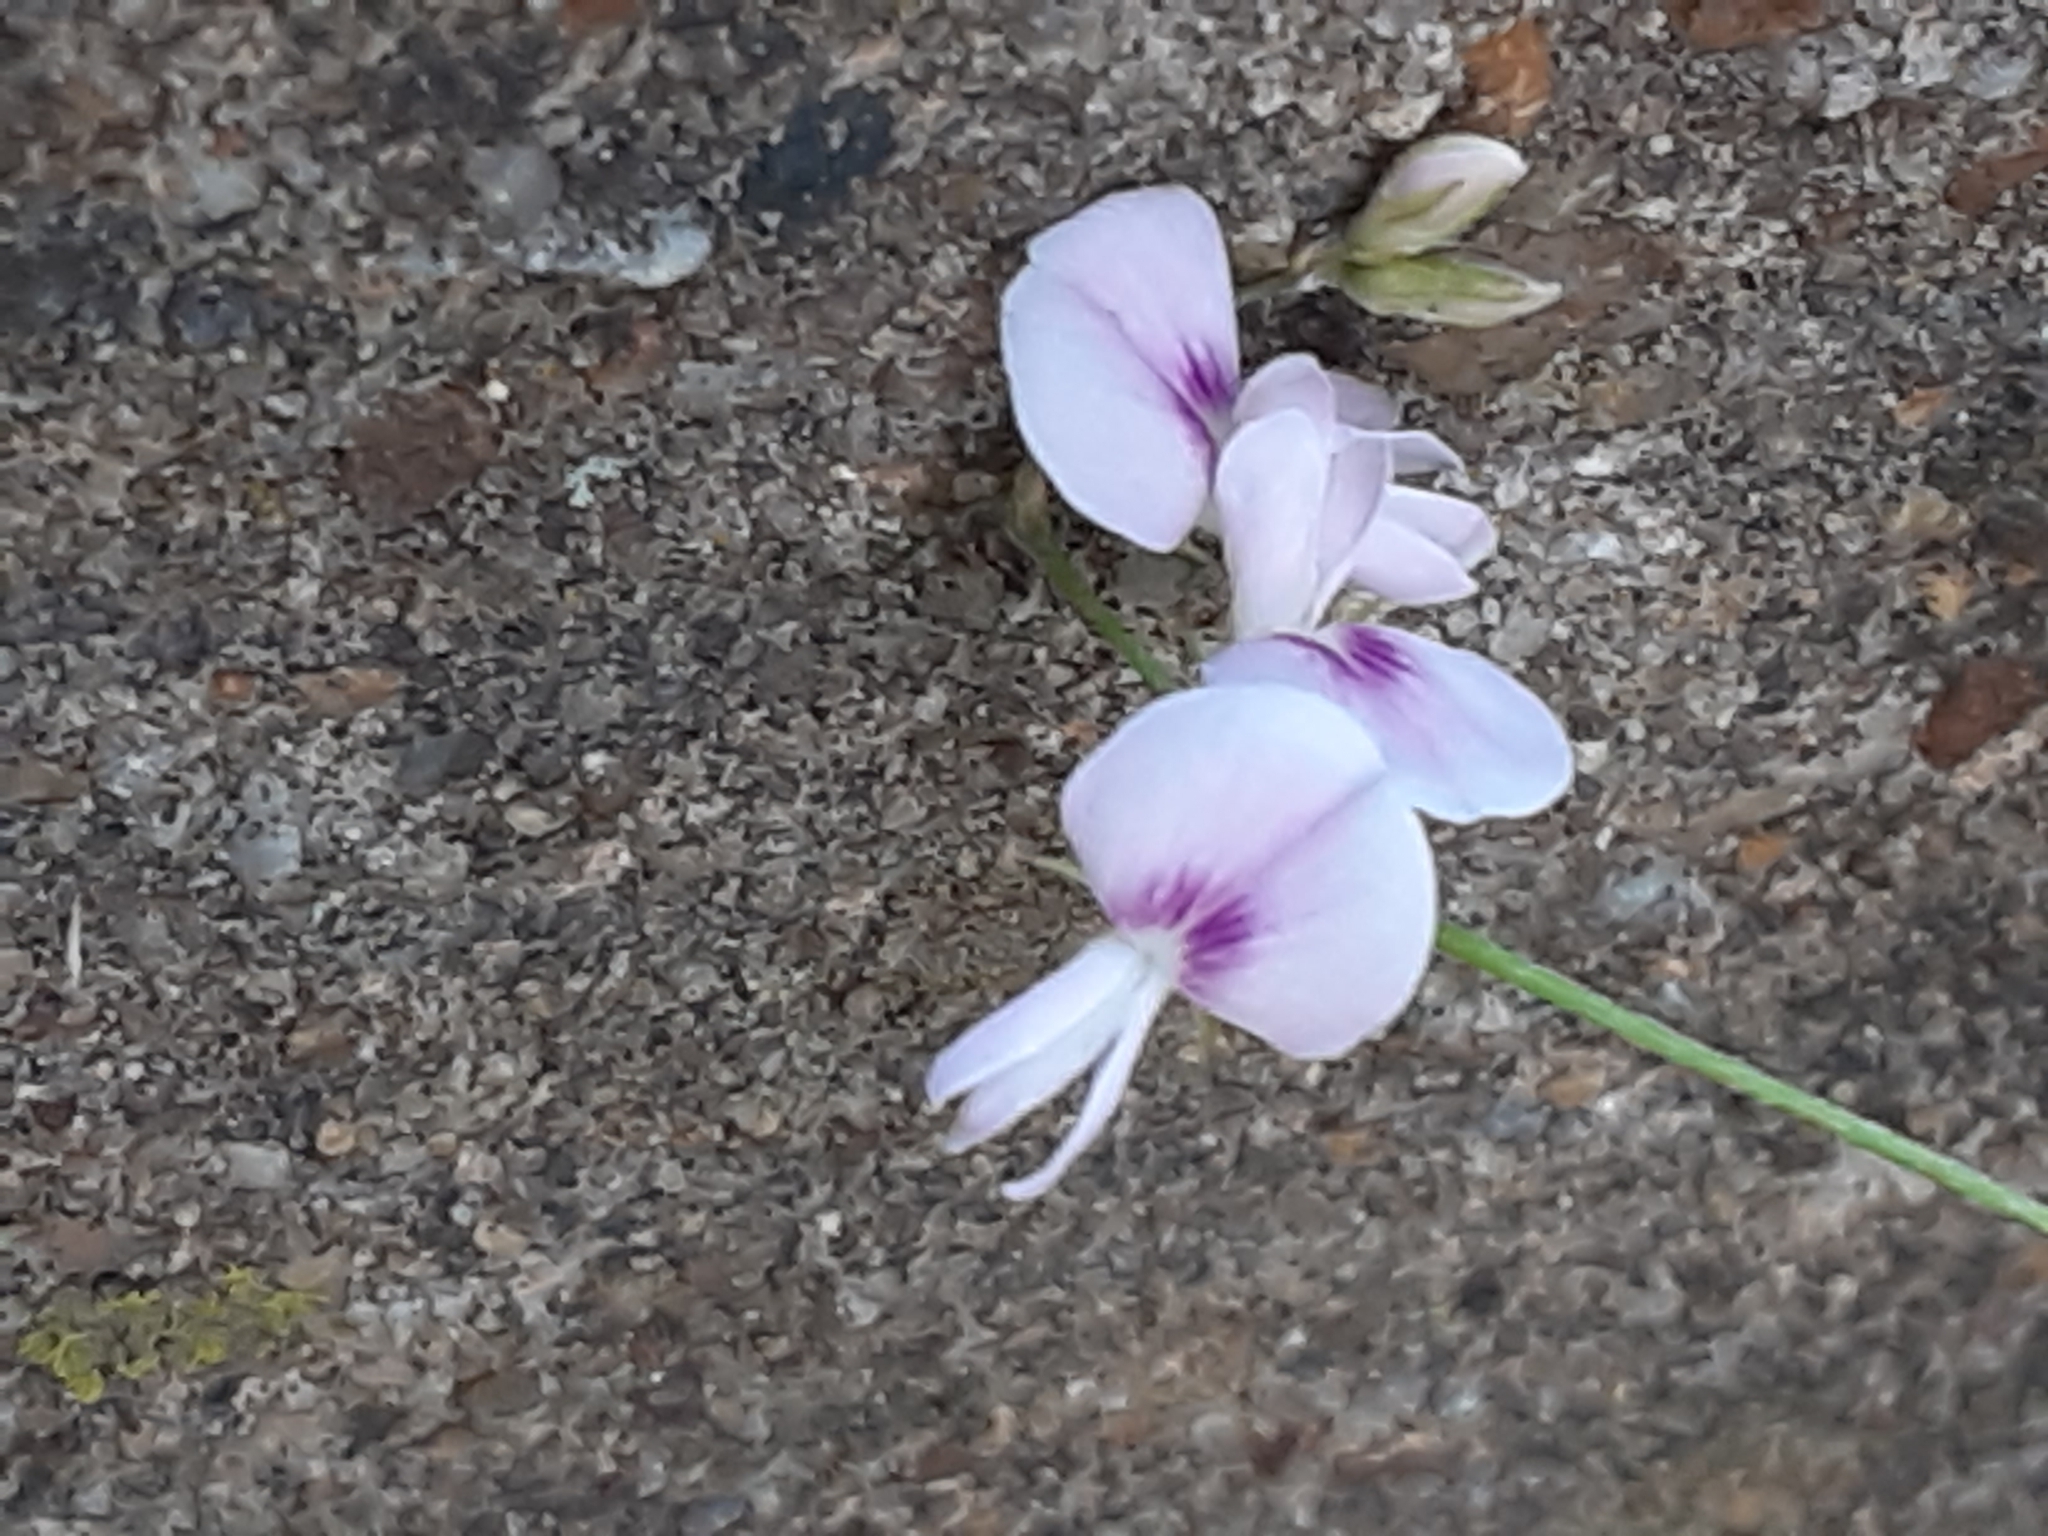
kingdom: Plantae
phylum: Tracheophyta
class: Magnoliopsida
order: Fabales
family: Fabaceae
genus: Lespedeza
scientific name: Lespedeza repens
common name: Creeping bush-clover
